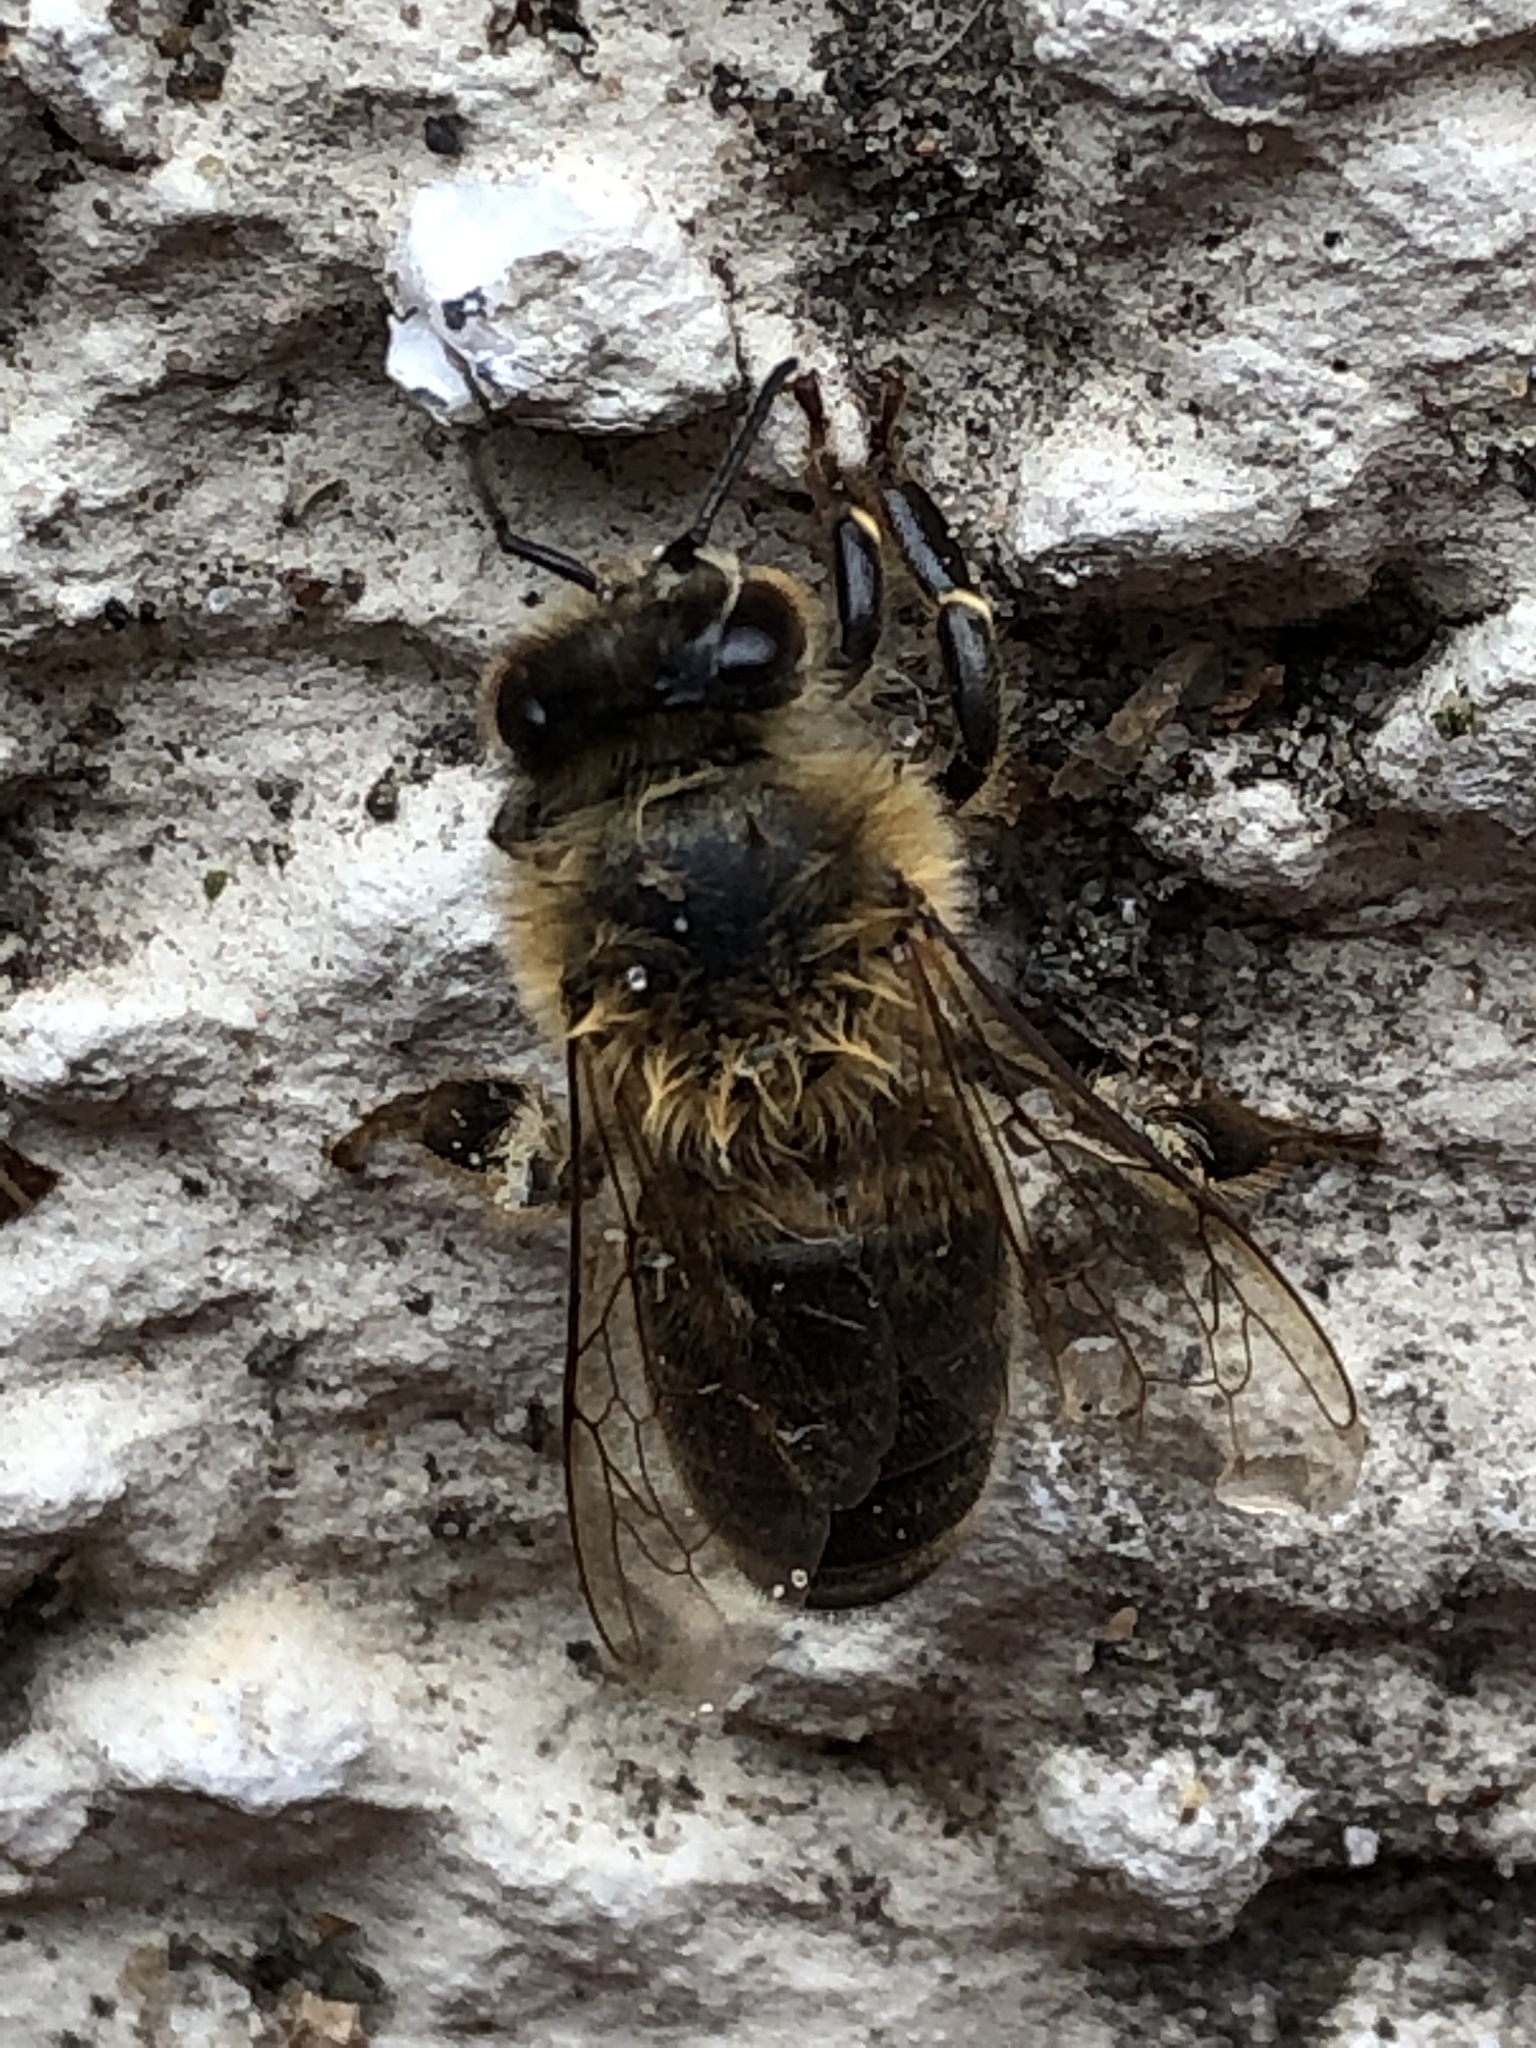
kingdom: Animalia
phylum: Arthropoda
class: Insecta
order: Hymenoptera
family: Apidae
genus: Apis
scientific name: Apis mellifera
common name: Honey bee
